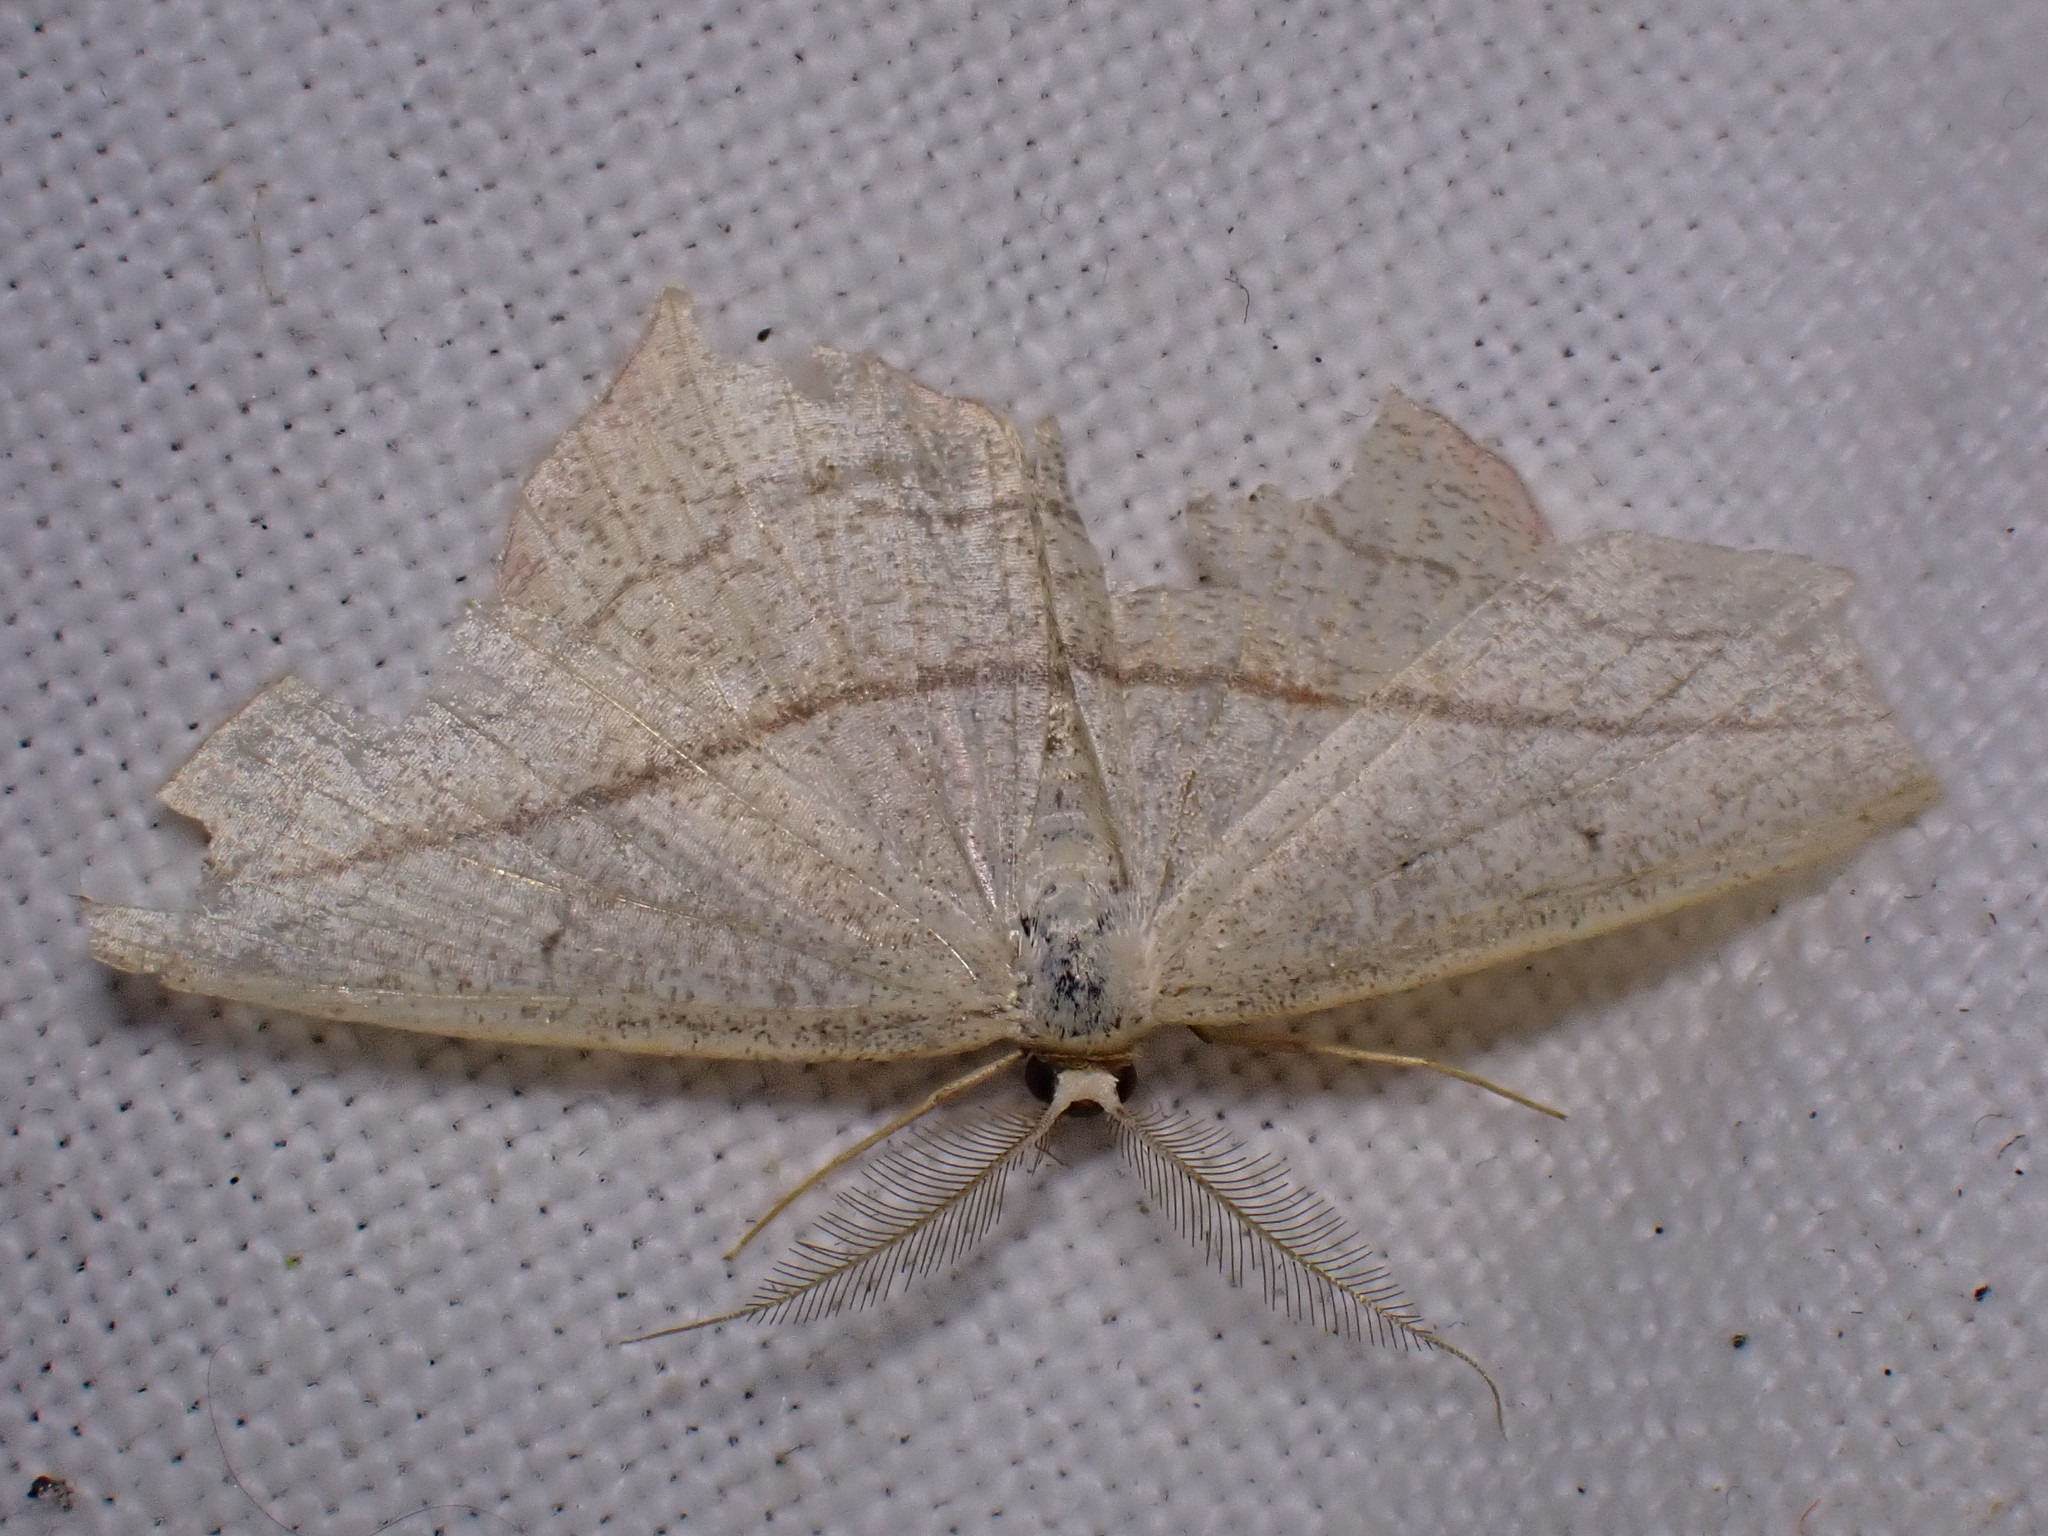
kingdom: Animalia
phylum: Arthropoda
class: Insecta
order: Lepidoptera
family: Geometridae
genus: Timandra
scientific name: Timandra comae
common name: Blood-vein
